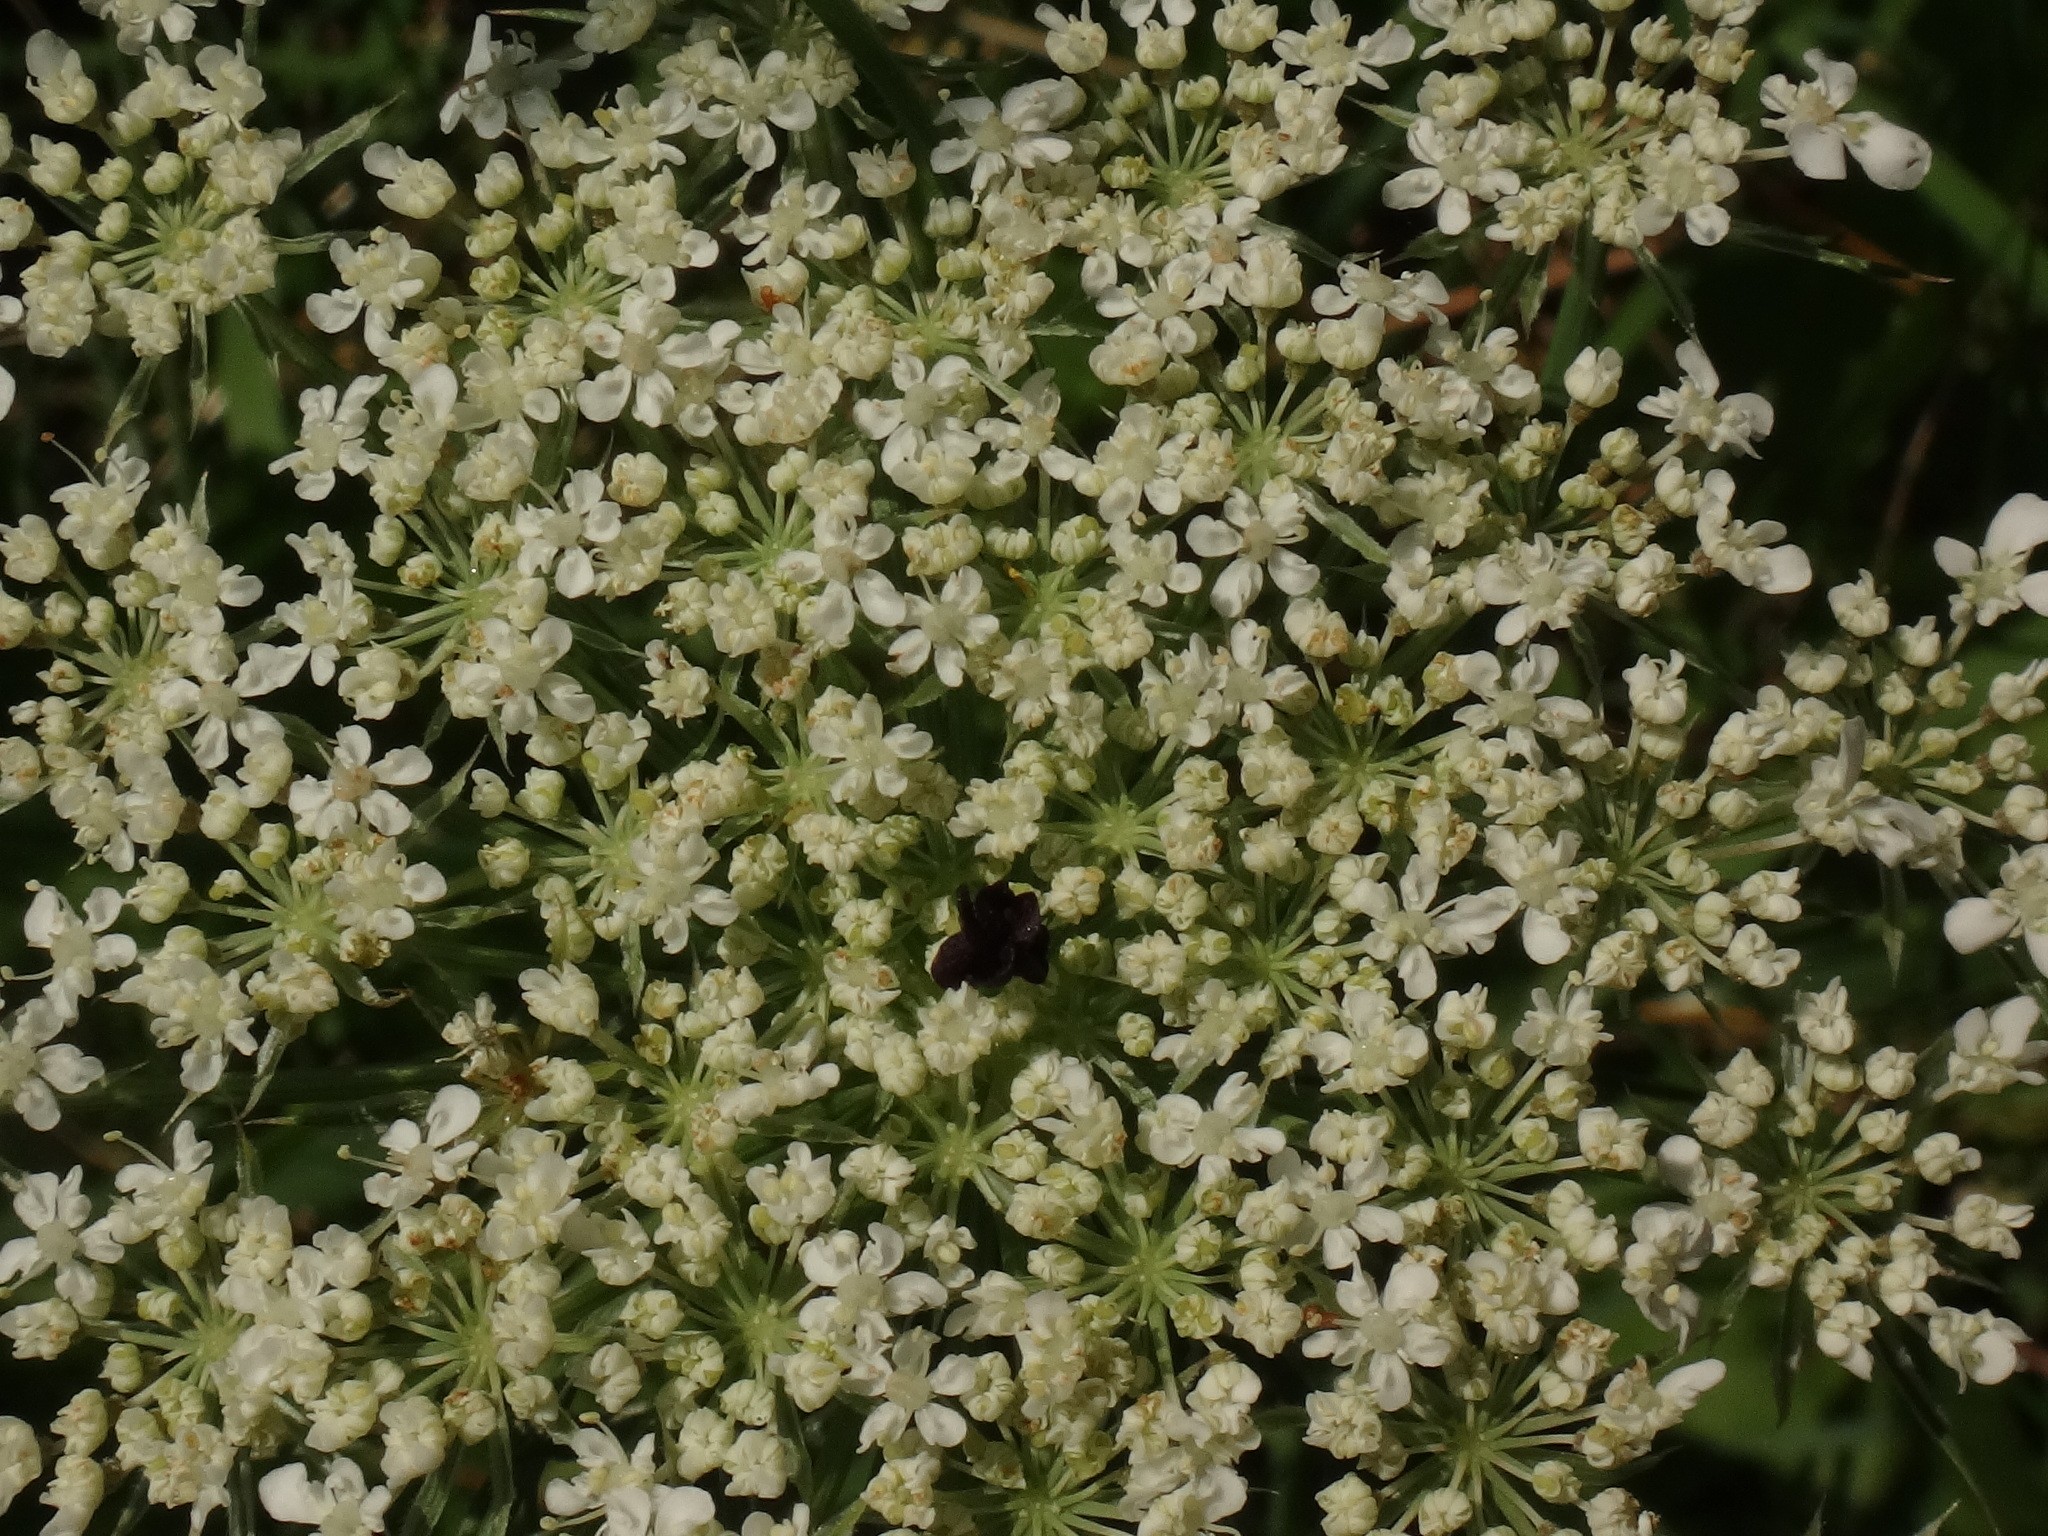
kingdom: Plantae
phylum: Tracheophyta
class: Magnoliopsida
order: Apiales
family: Apiaceae
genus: Daucus
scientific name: Daucus carota
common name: Wild carrot
